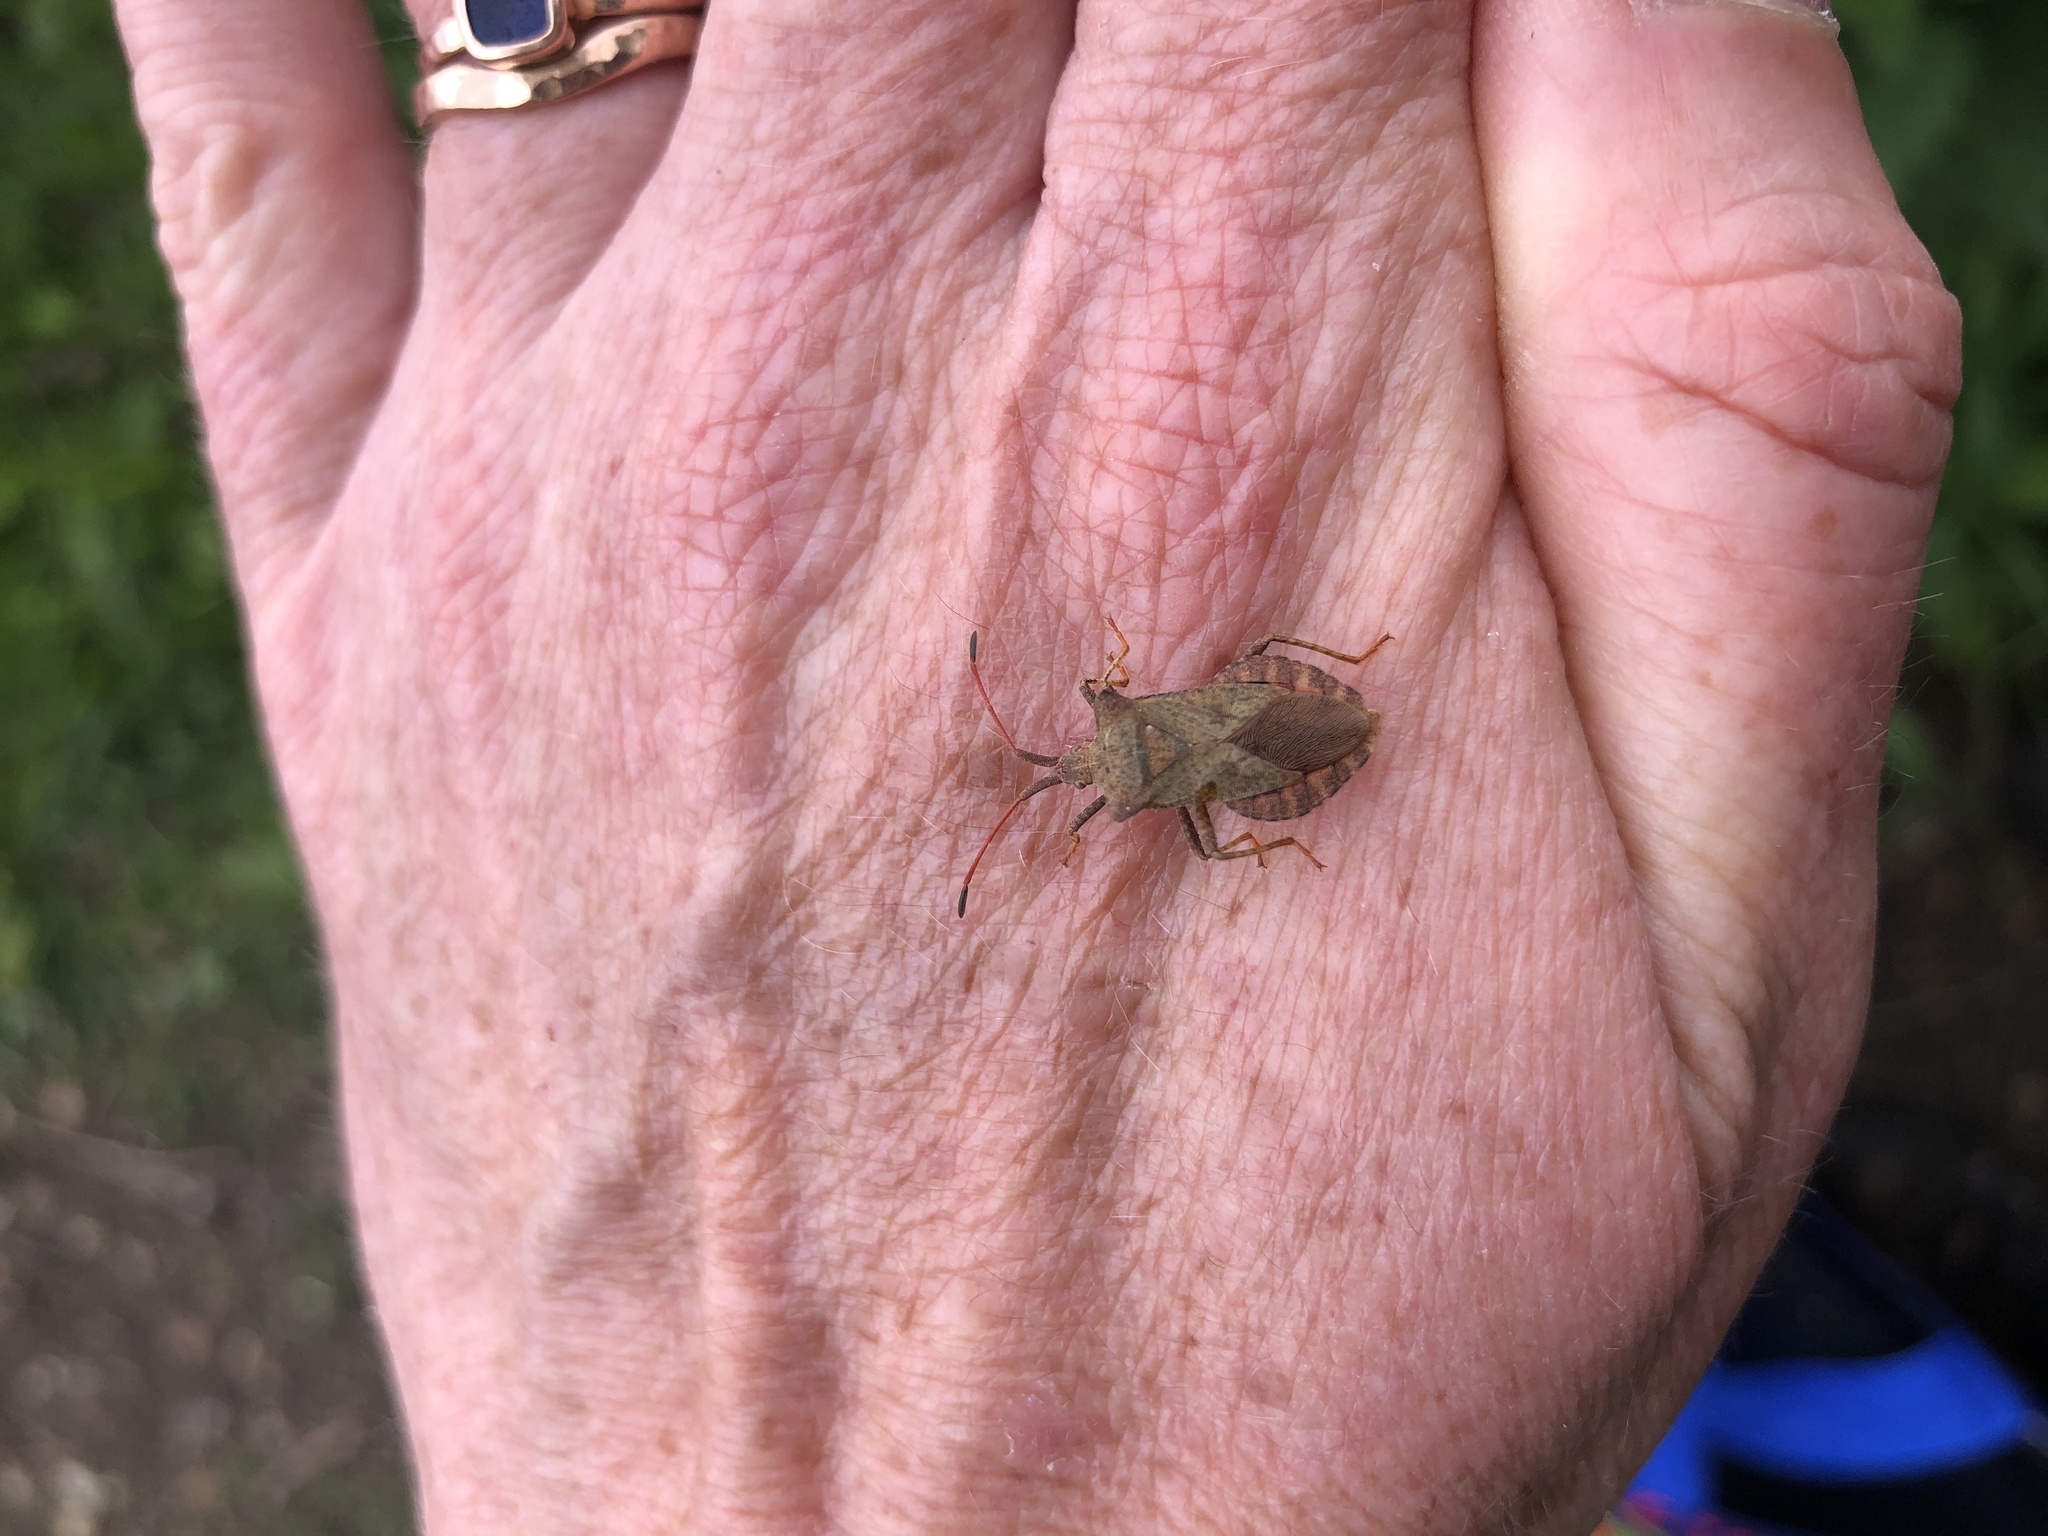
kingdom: Animalia
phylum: Arthropoda
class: Insecta
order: Hemiptera
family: Coreidae
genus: Coreus
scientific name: Coreus marginatus
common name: Dock bug
